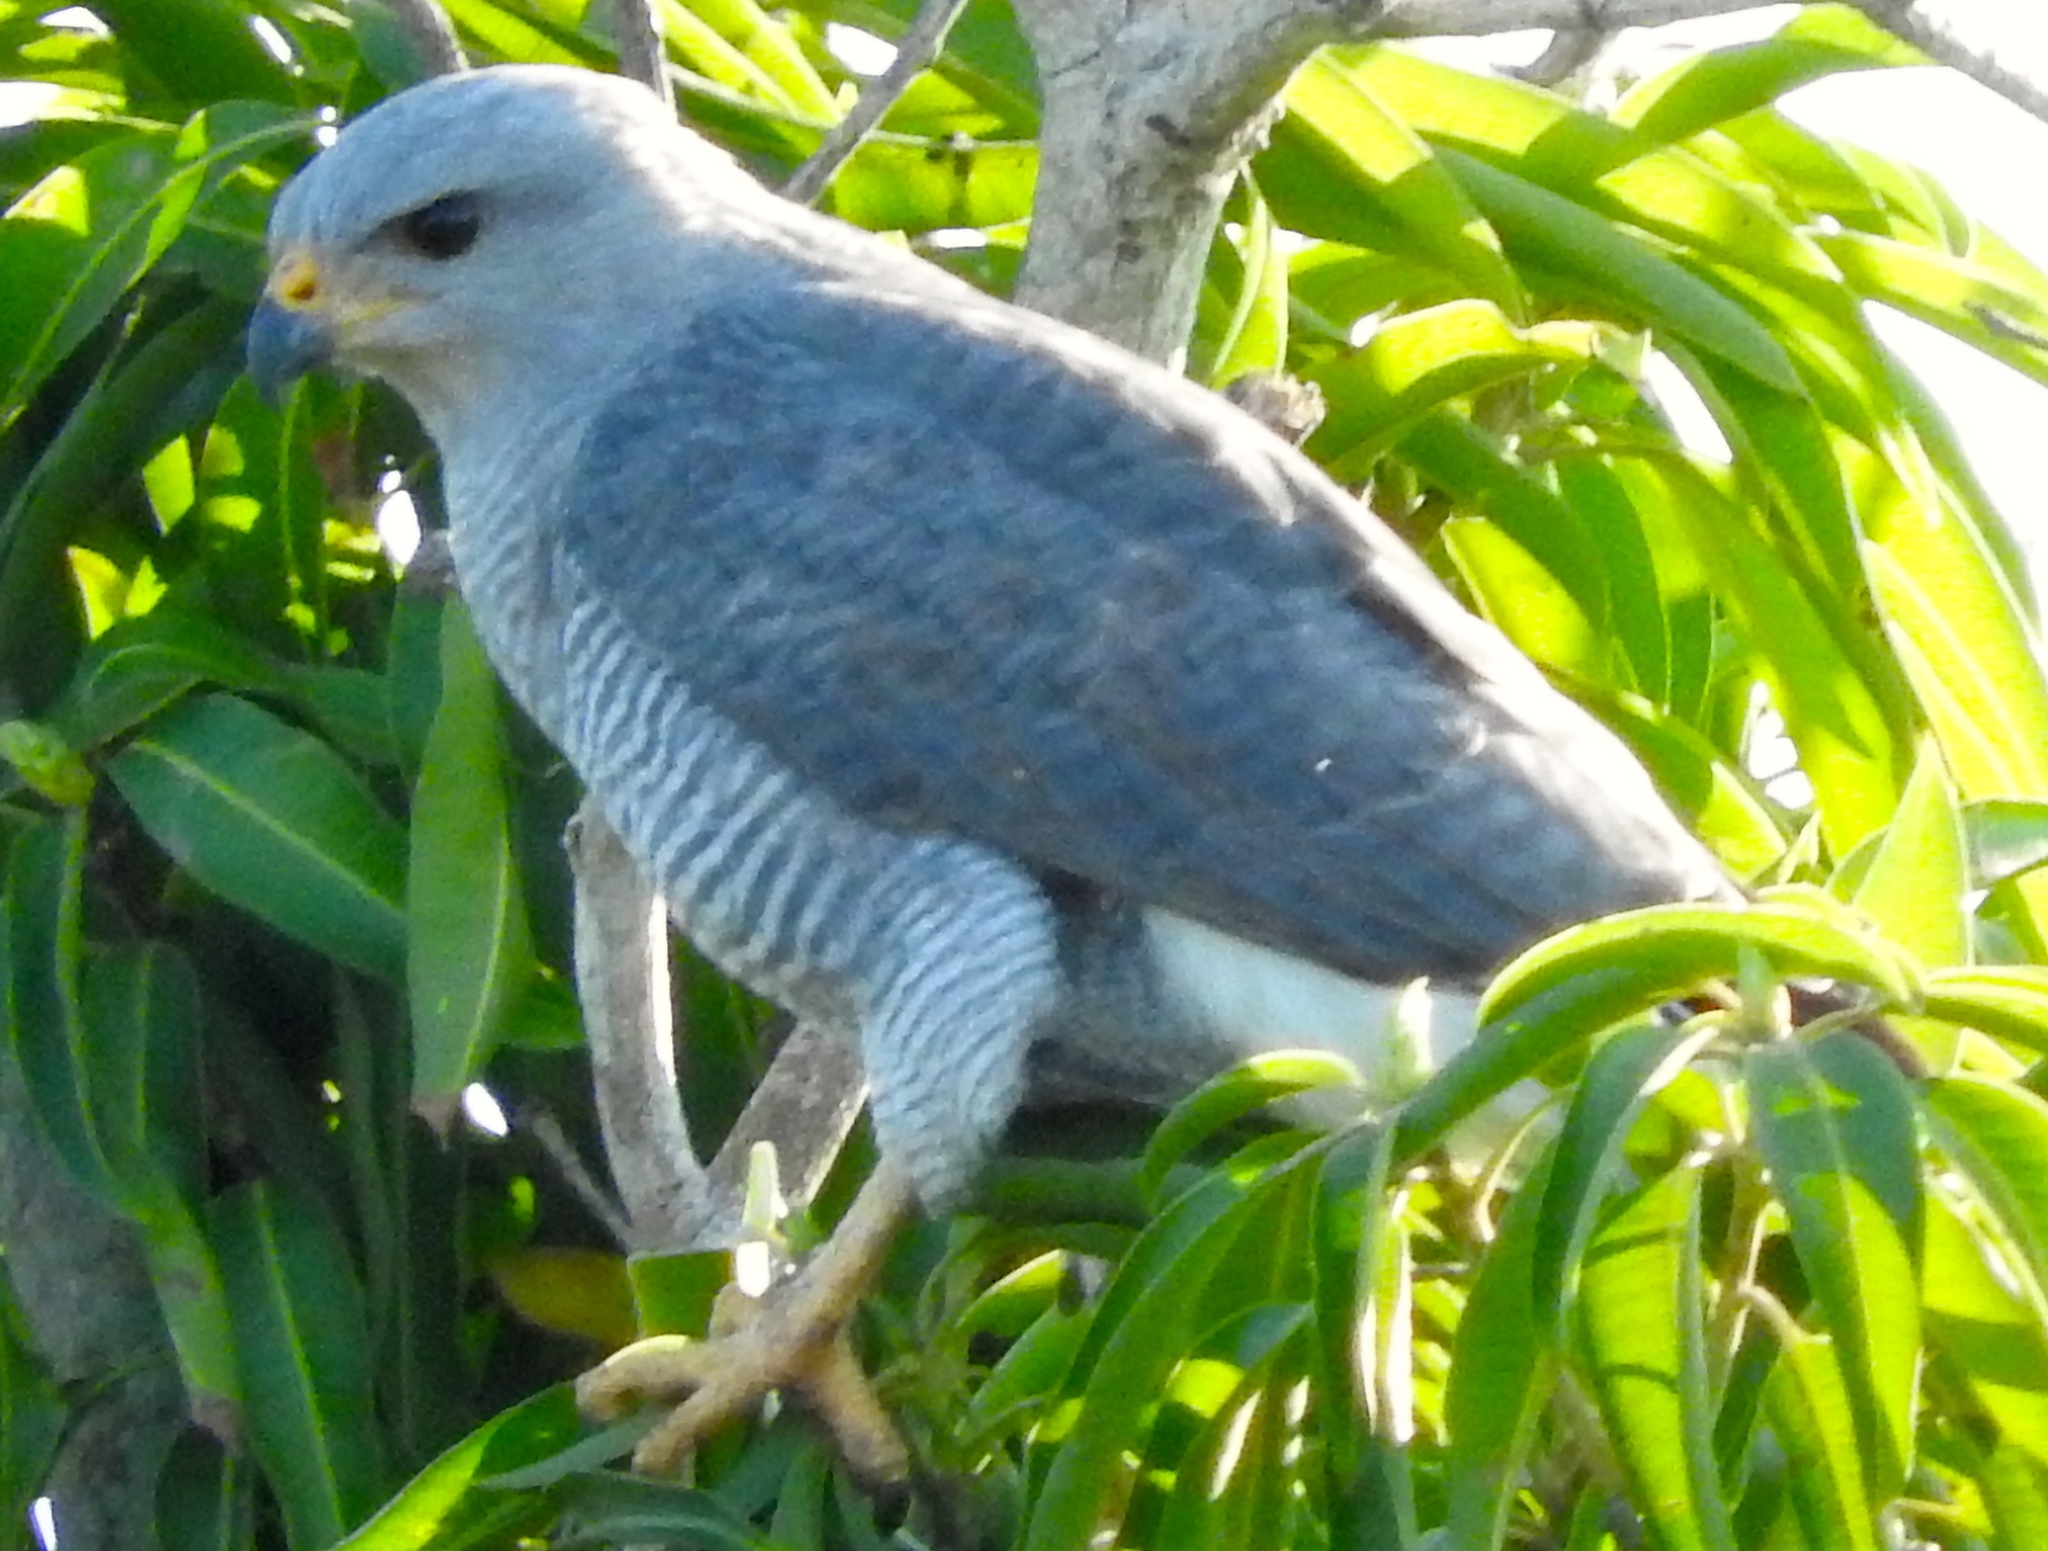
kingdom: Animalia
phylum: Chordata
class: Aves
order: Accipitriformes
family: Accipitridae
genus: Buteo
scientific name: Buteo nitidus
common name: Grey-lined hawk
